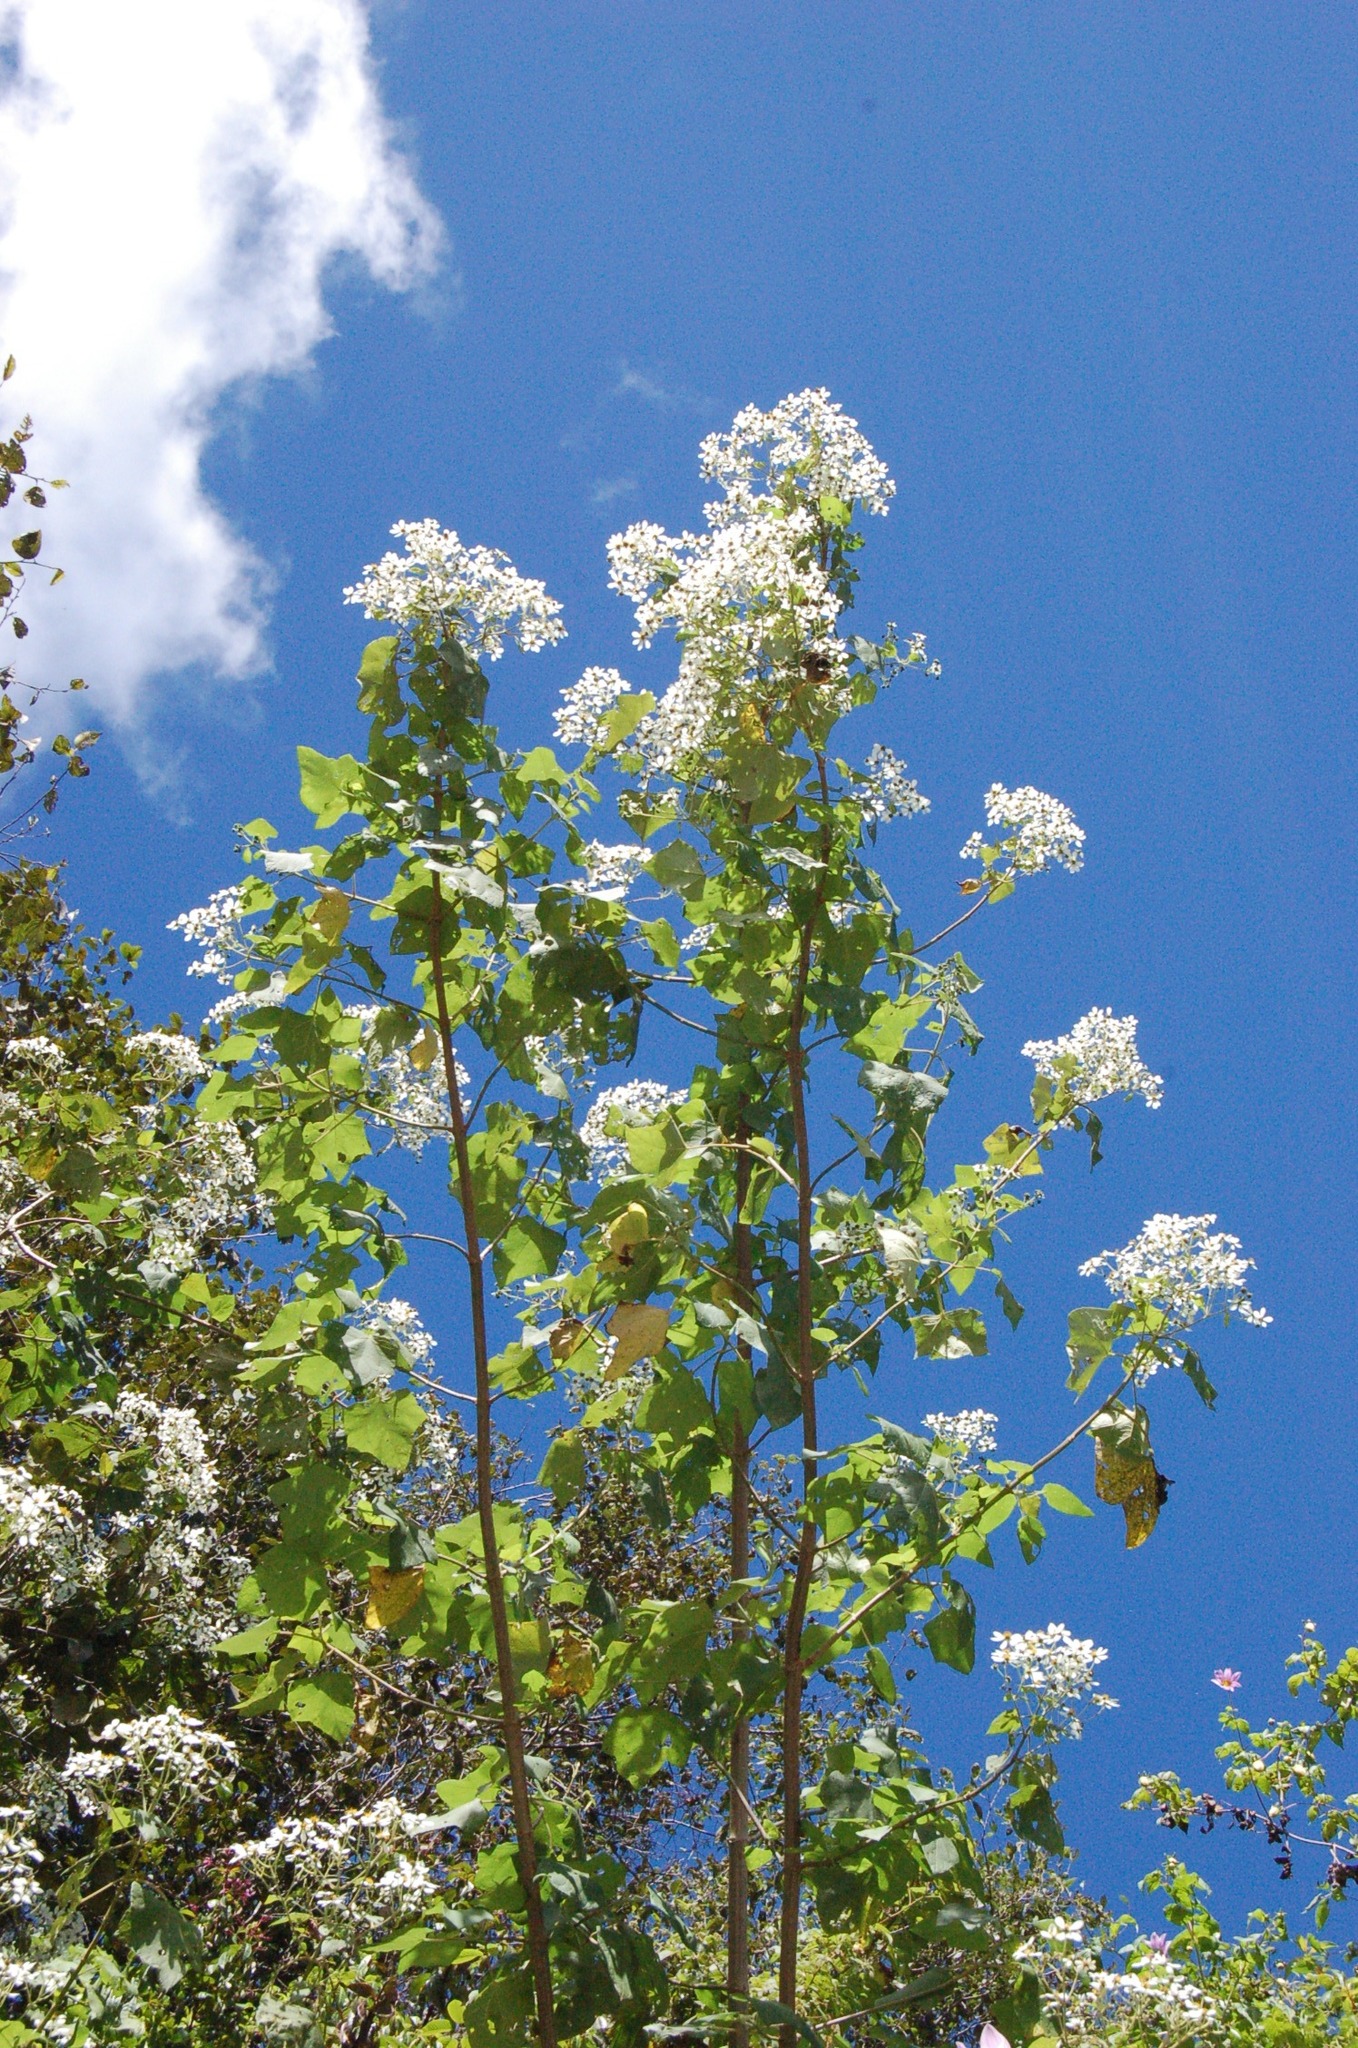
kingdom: Plantae
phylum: Tracheophyta
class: Magnoliopsida
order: Asterales
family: Asteraceae
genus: Montanoa
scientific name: Montanoa leucantha
